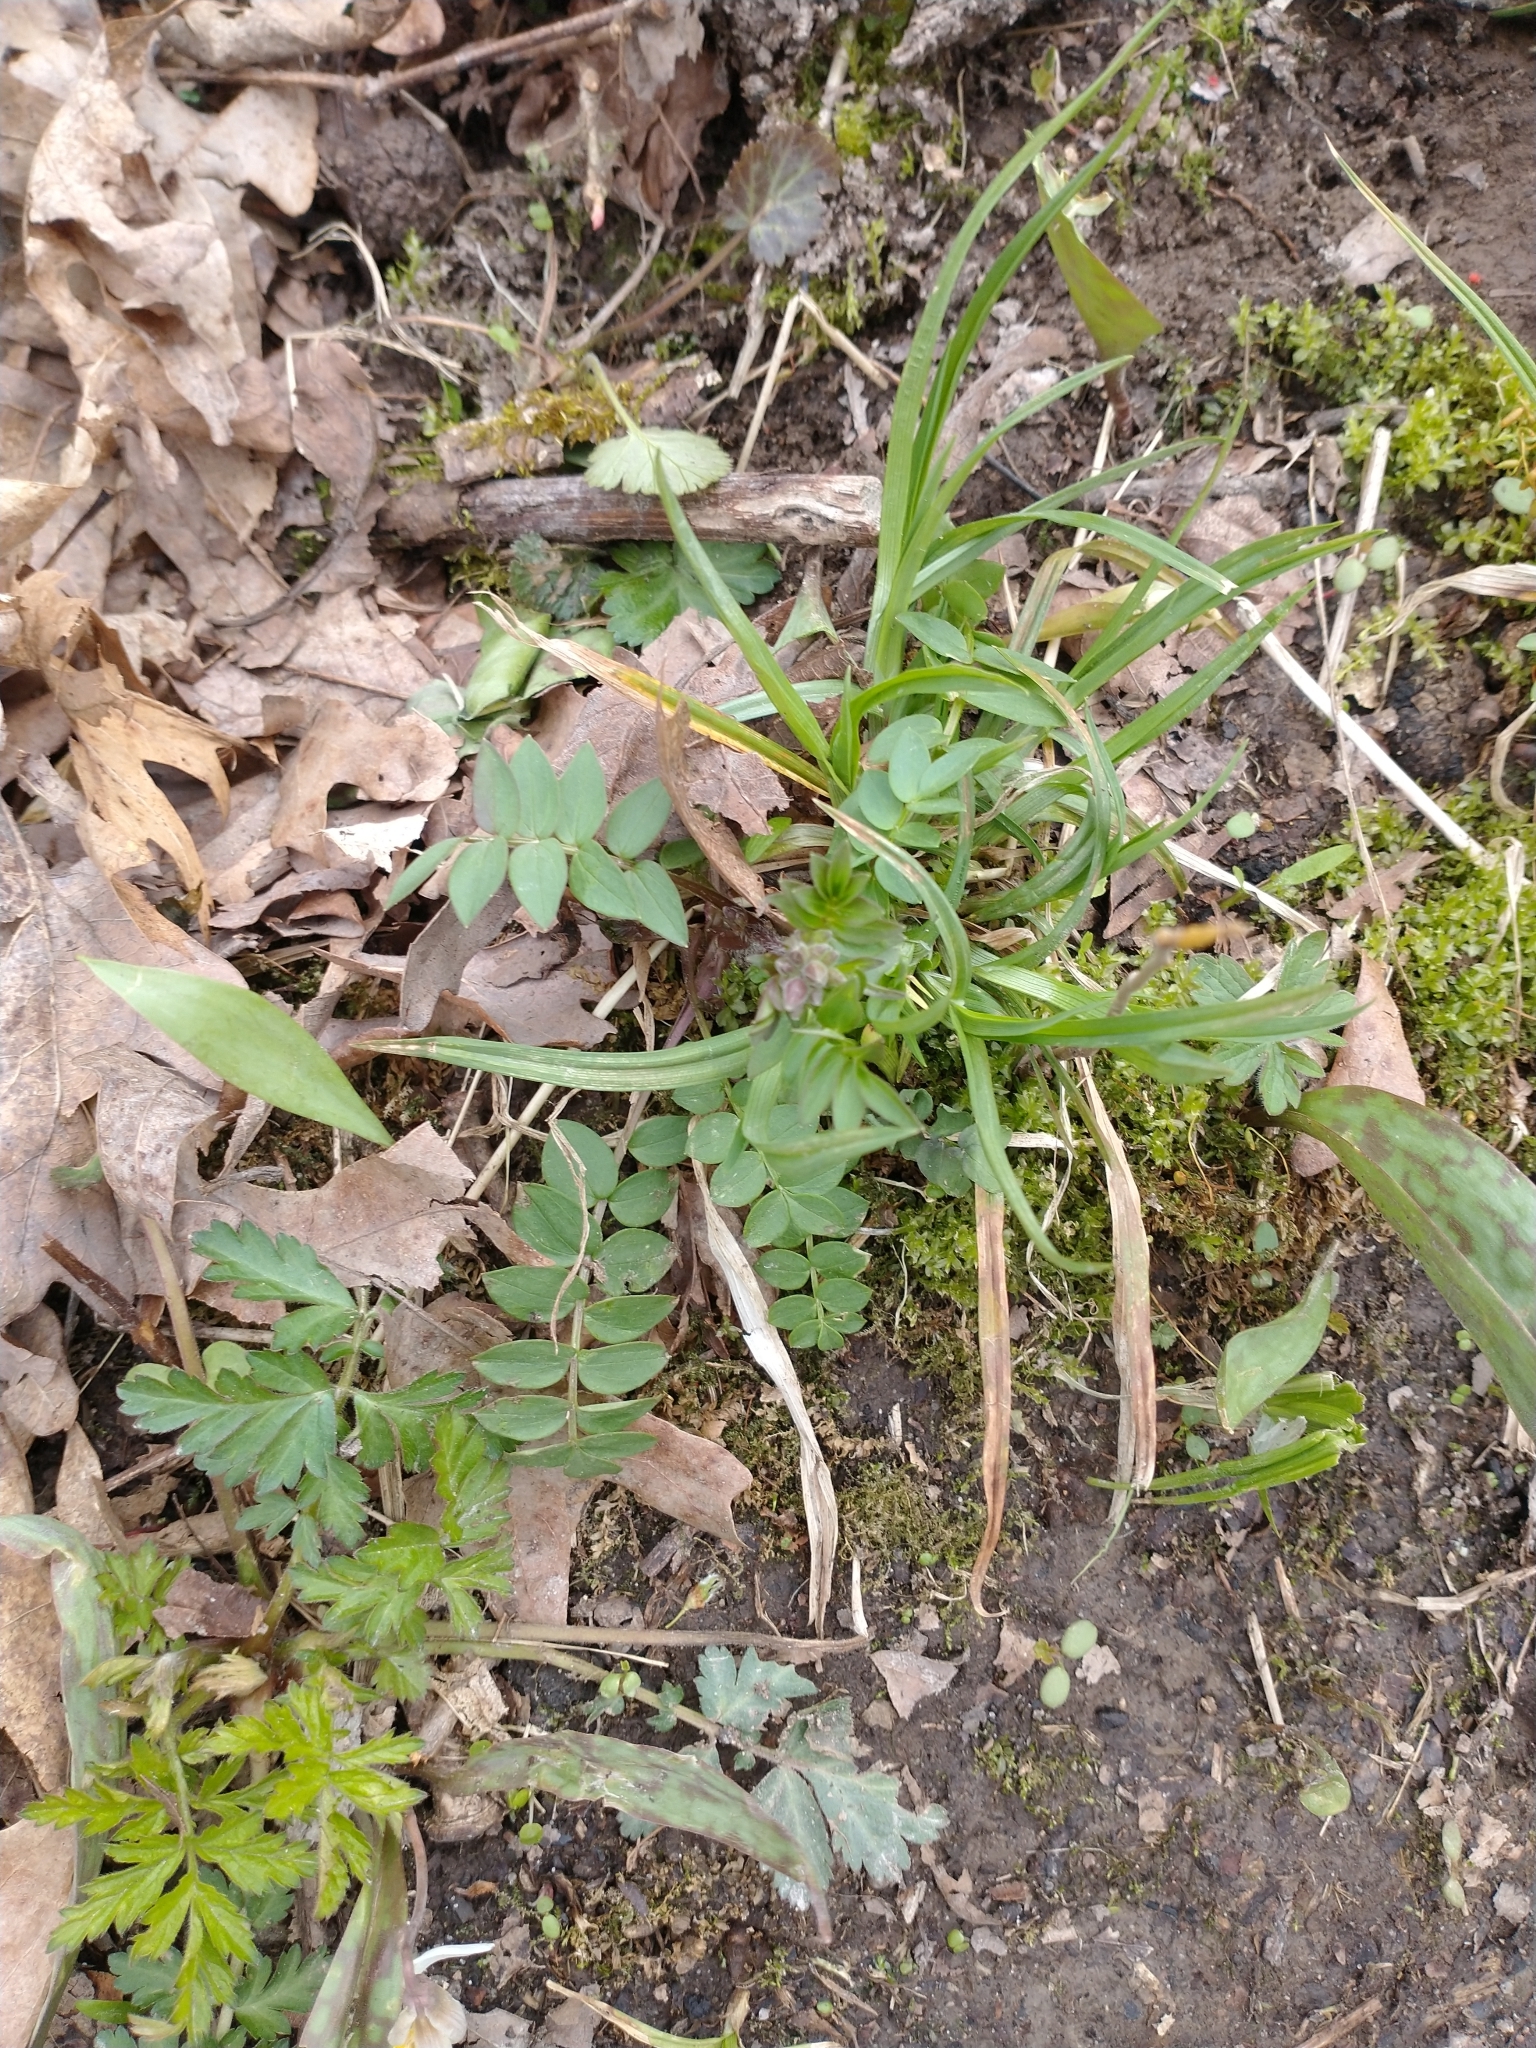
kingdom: Plantae
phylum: Tracheophyta
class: Magnoliopsida
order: Ericales
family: Polemoniaceae
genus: Polemonium
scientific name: Polemonium reptans
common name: Creeping jacob's-ladder
